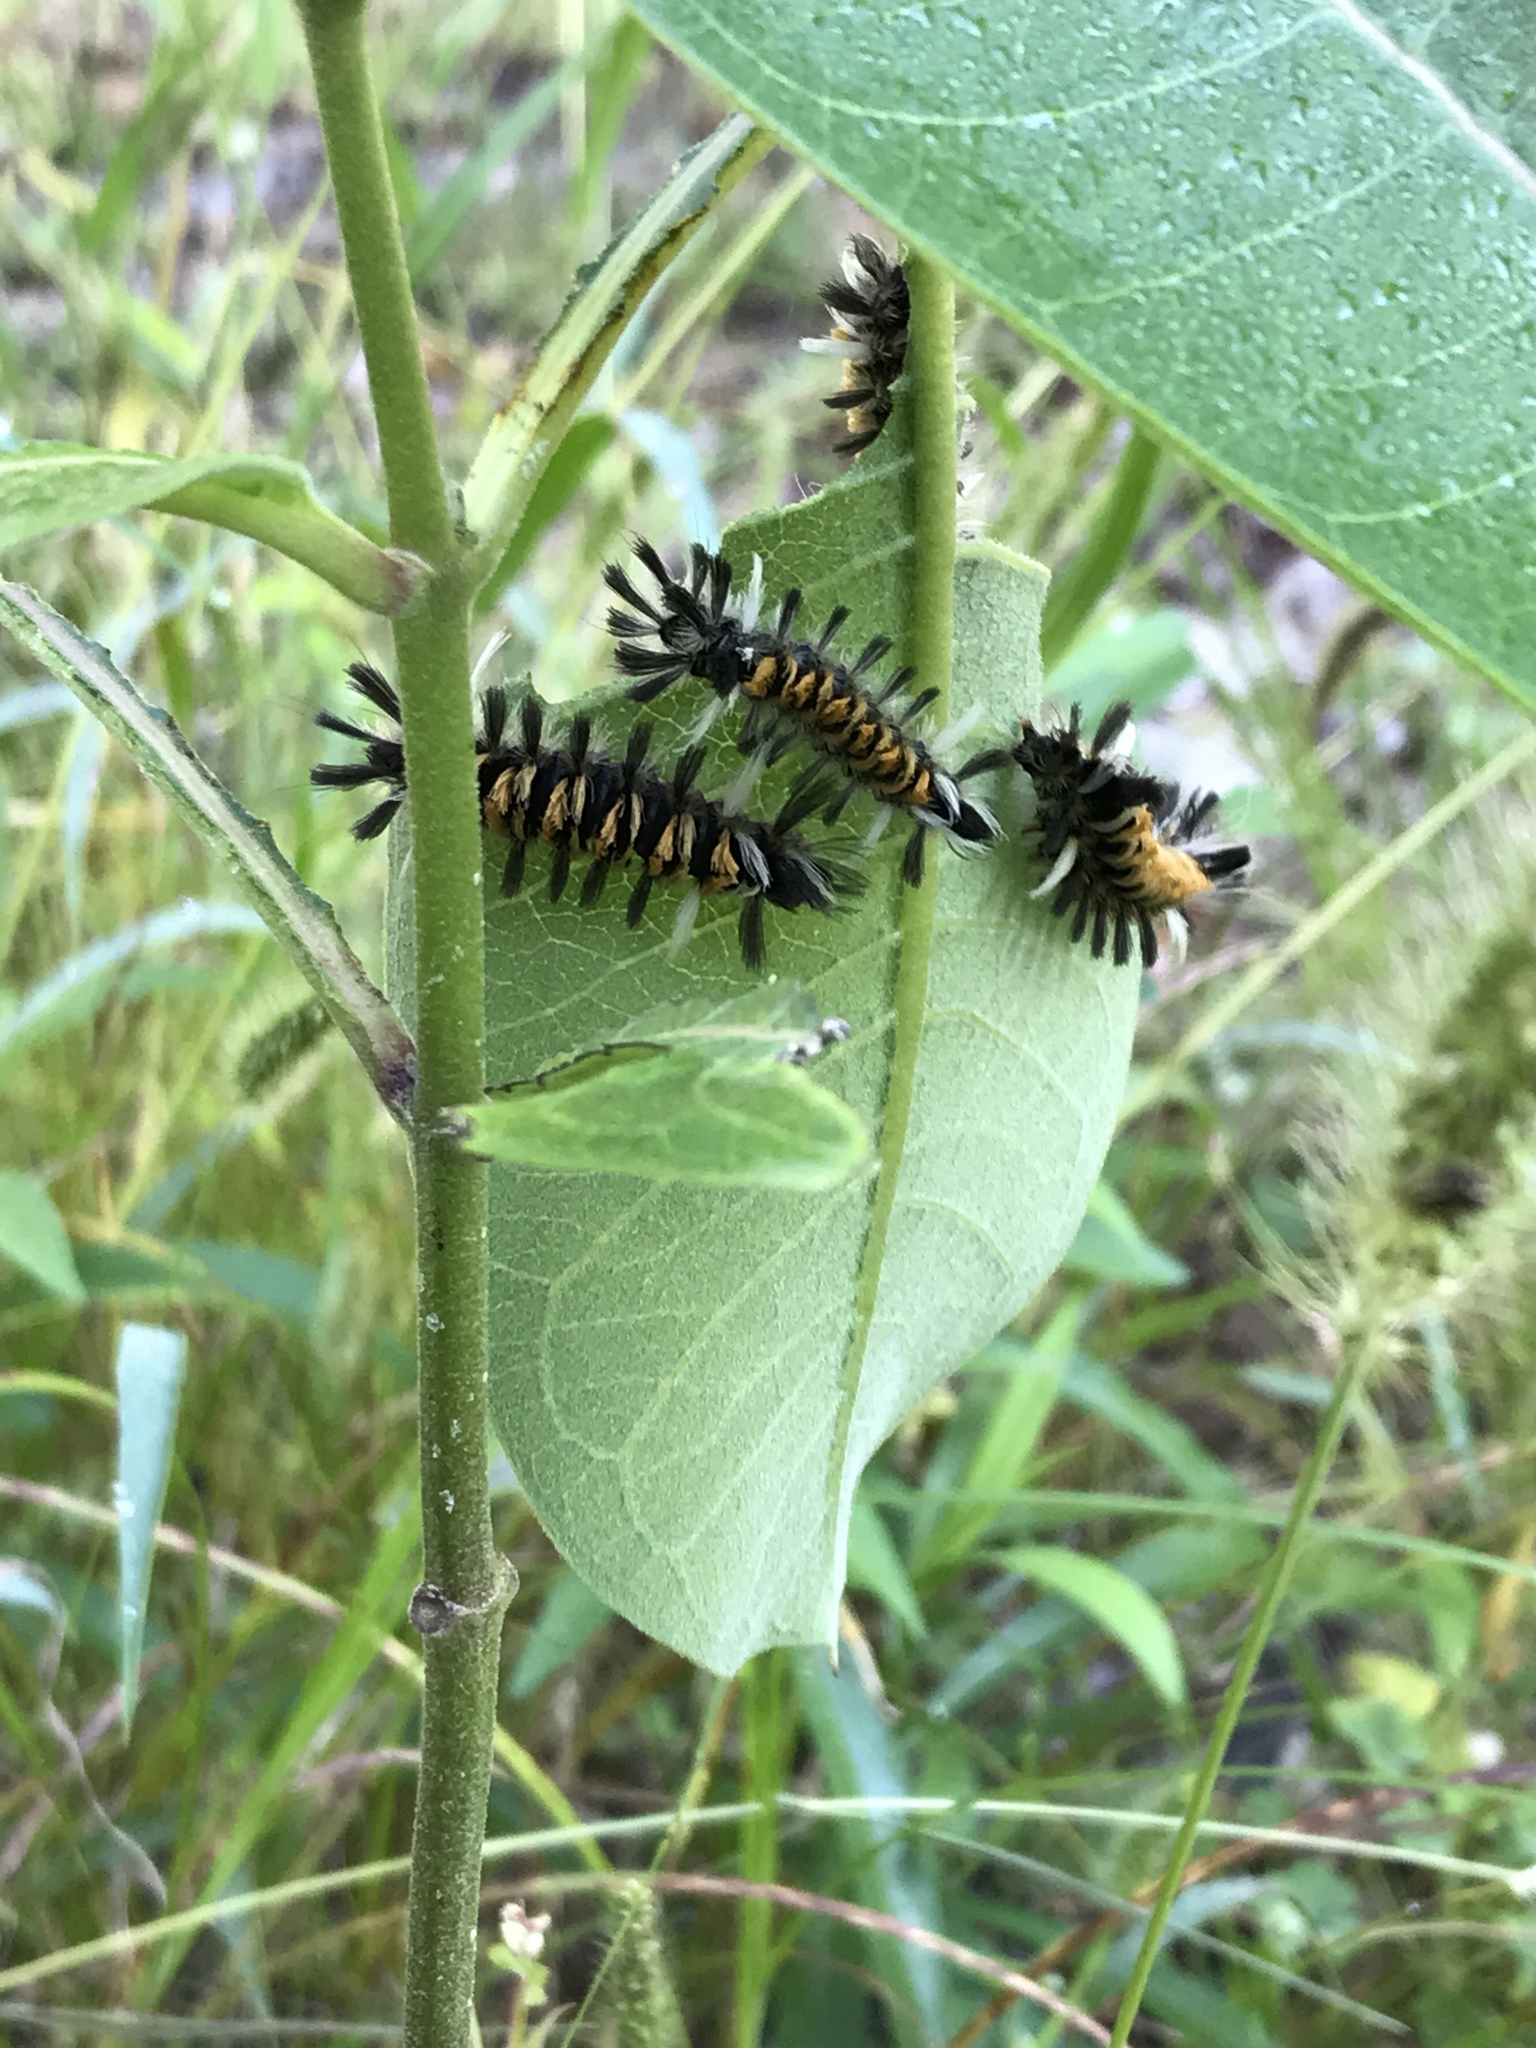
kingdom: Animalia
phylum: Arthropoda
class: Insecta
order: Lepidoptera
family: Erebidae
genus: Euchaetes
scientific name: Euchaetes egle
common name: Milkweed tussock moth
